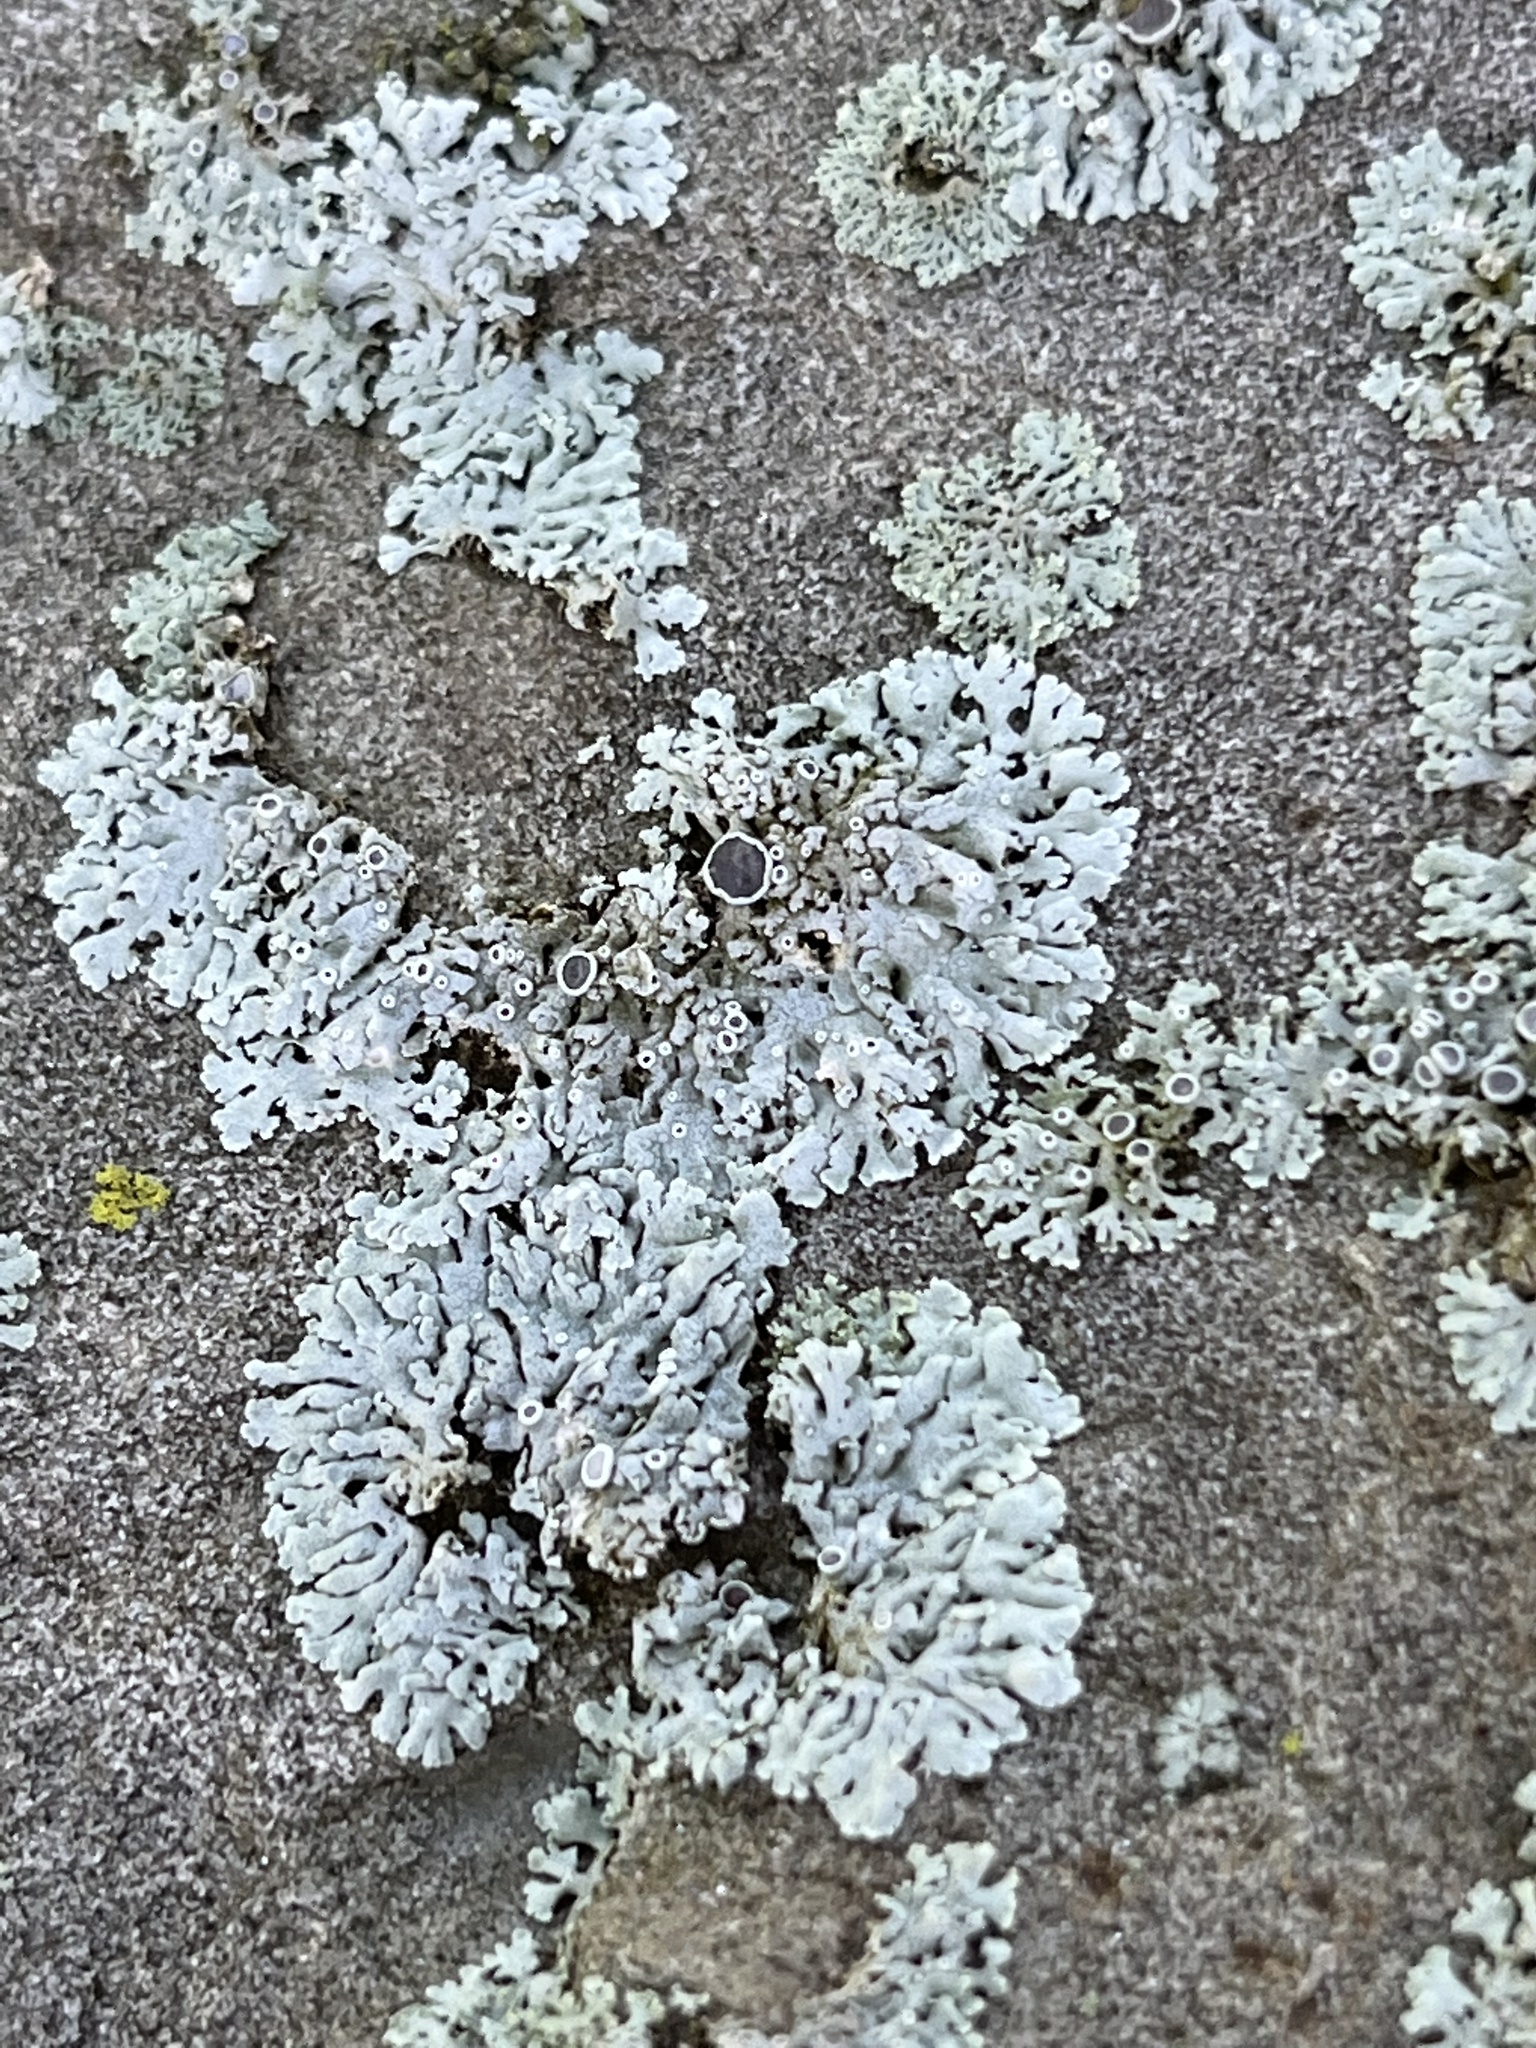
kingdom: Fungi
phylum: Ascomycota
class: Lecanoromycetes
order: Caliciales
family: Physciaceae
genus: Physcia
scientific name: Physcia phaea
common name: Black-eyed rosette lichen
